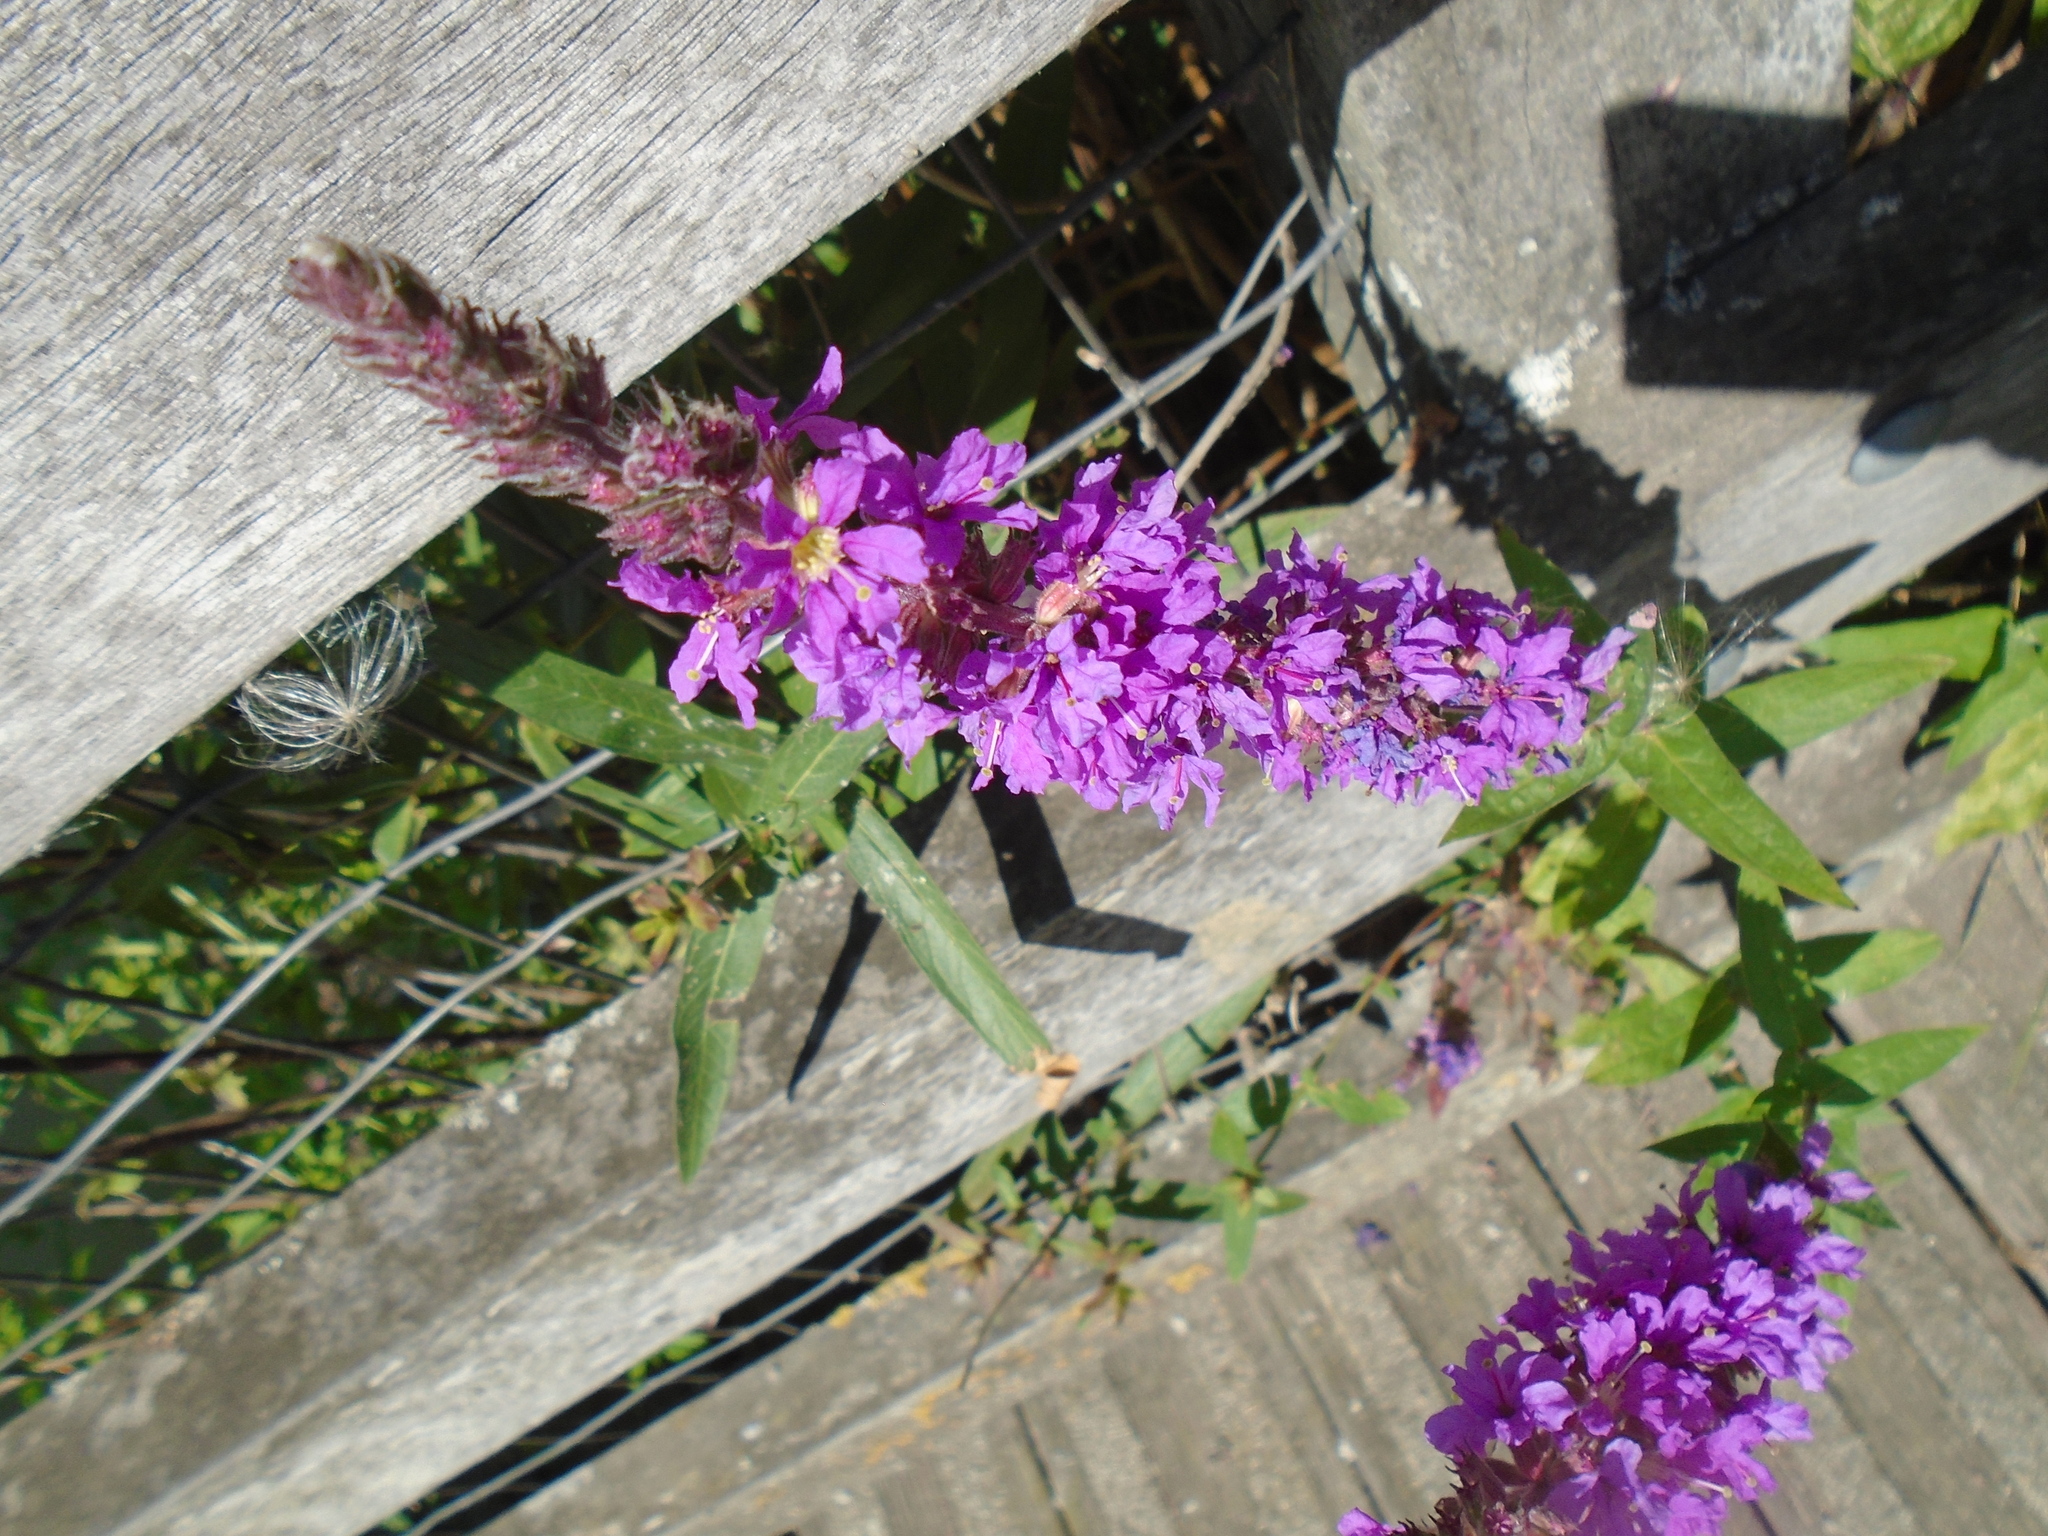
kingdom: Plantae
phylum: Tracheophyta
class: Magnoliopsida
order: Myrtales
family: Lythraceae
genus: Lythrum
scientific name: Lythrum salicaria
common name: Purple loosestrife
